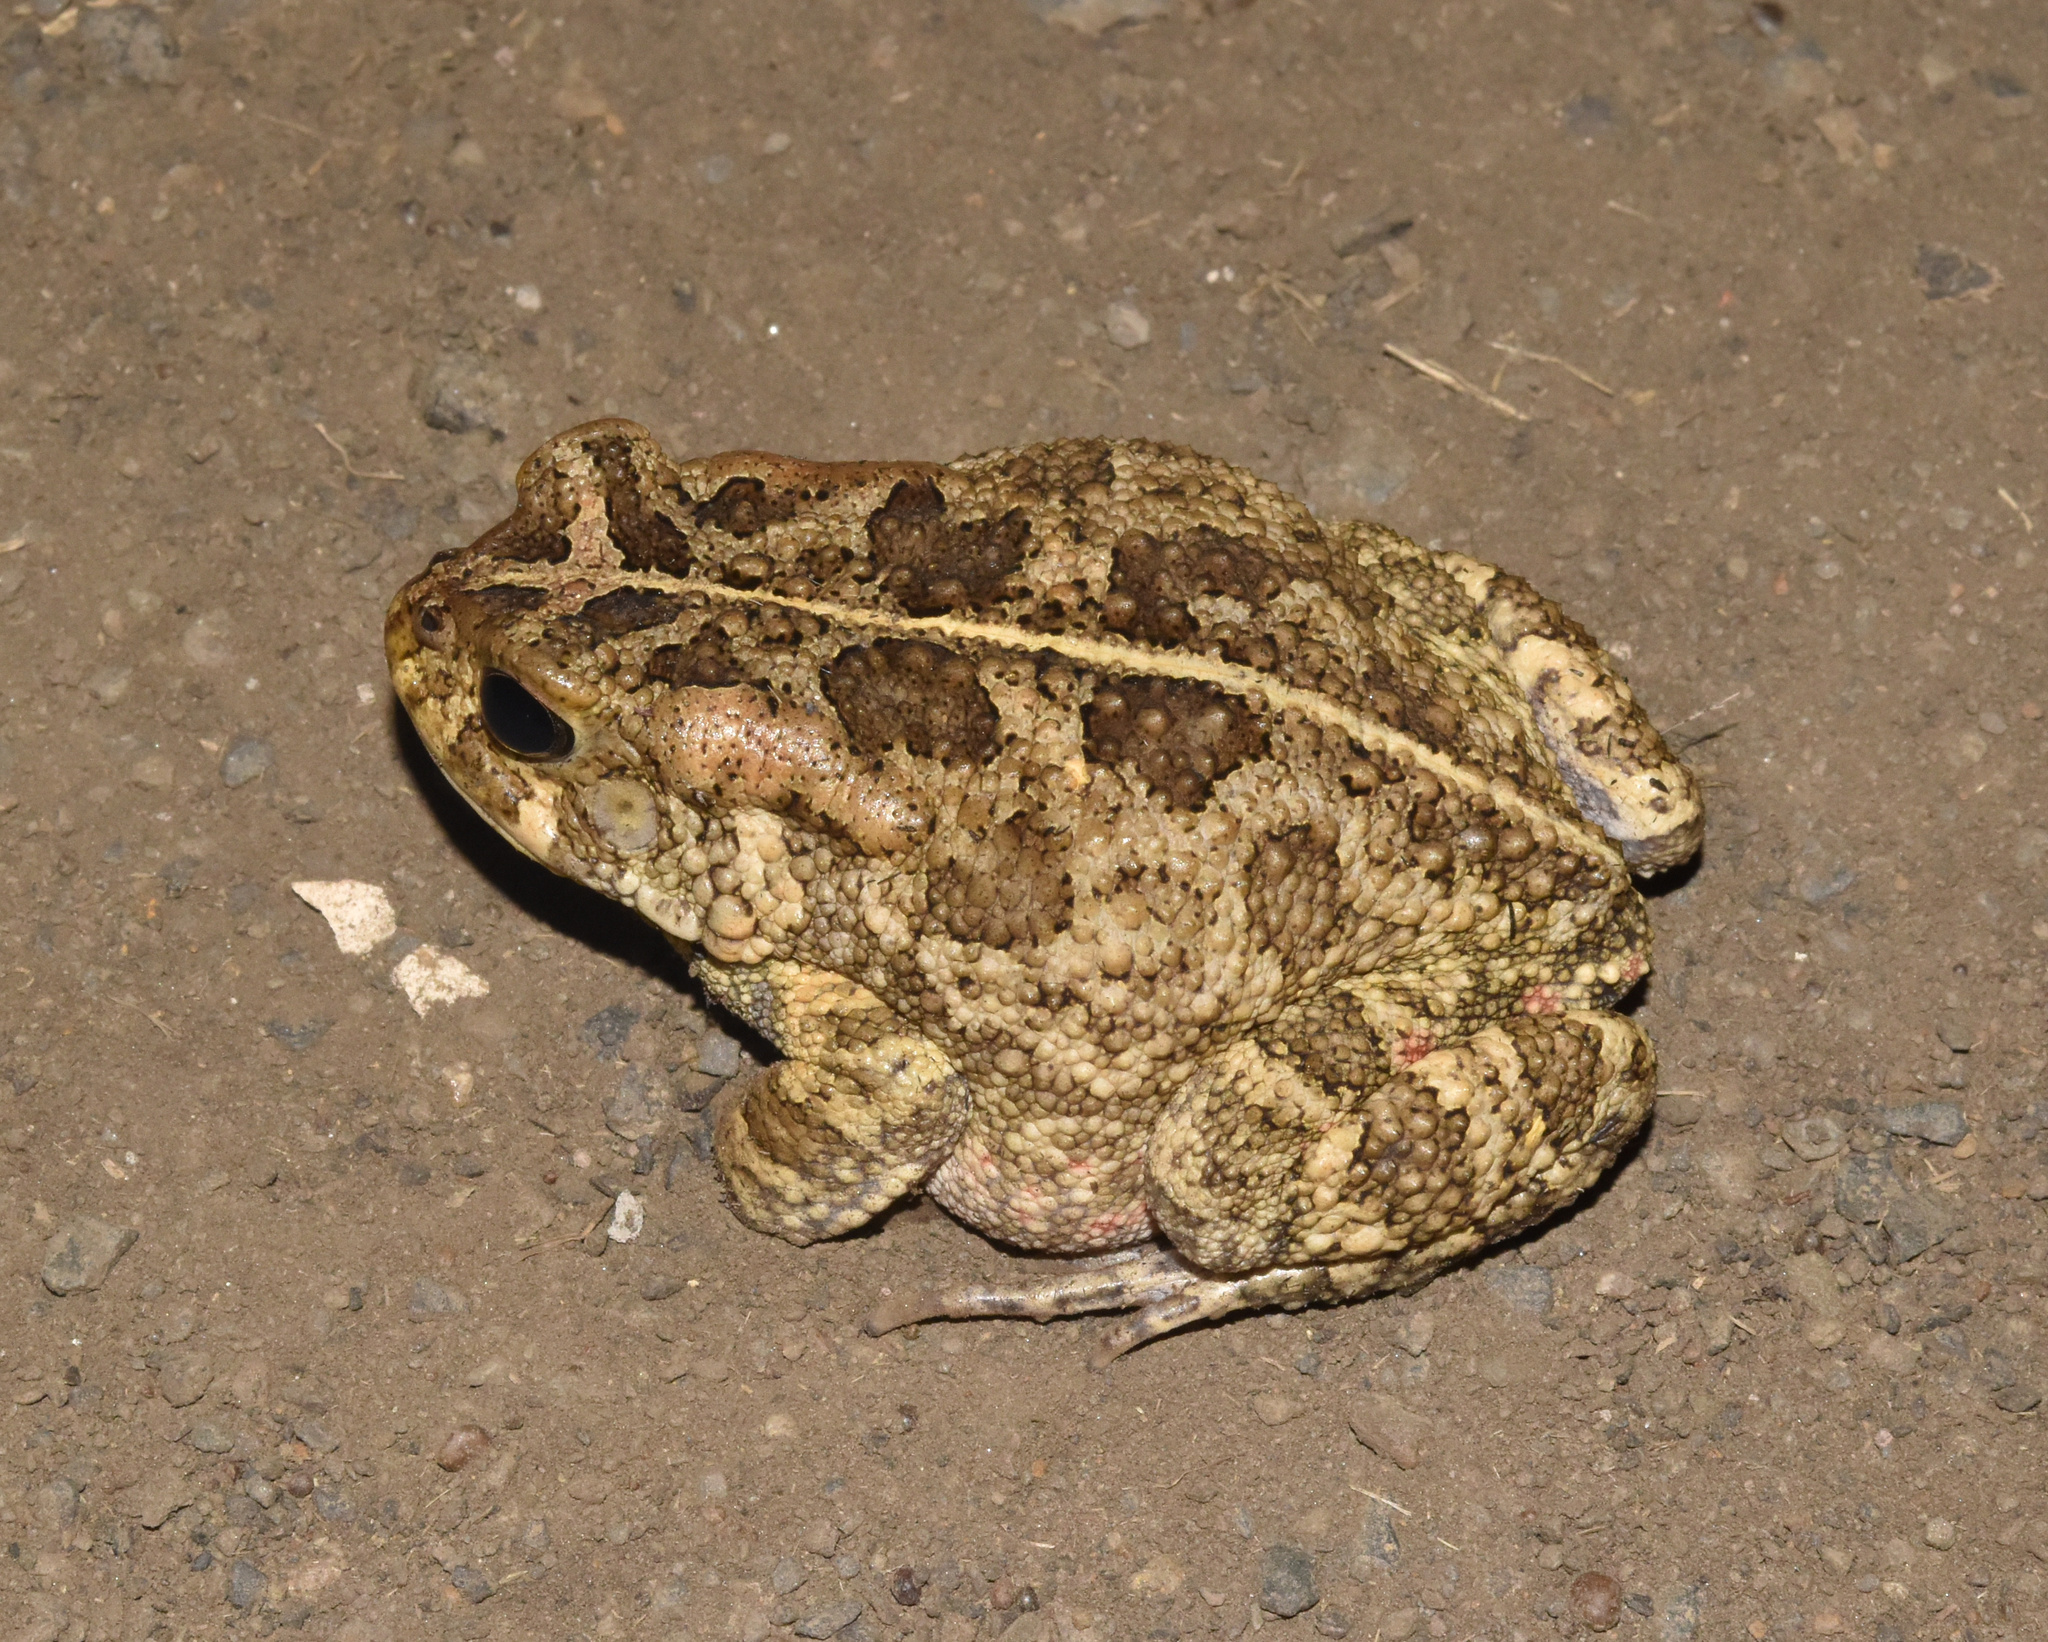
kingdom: Animalia
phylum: Chordata
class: Amphibia
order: Anura
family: Bufonidae
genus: Sclerophrys
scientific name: Sclerophrys gutturalis
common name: African common toad
